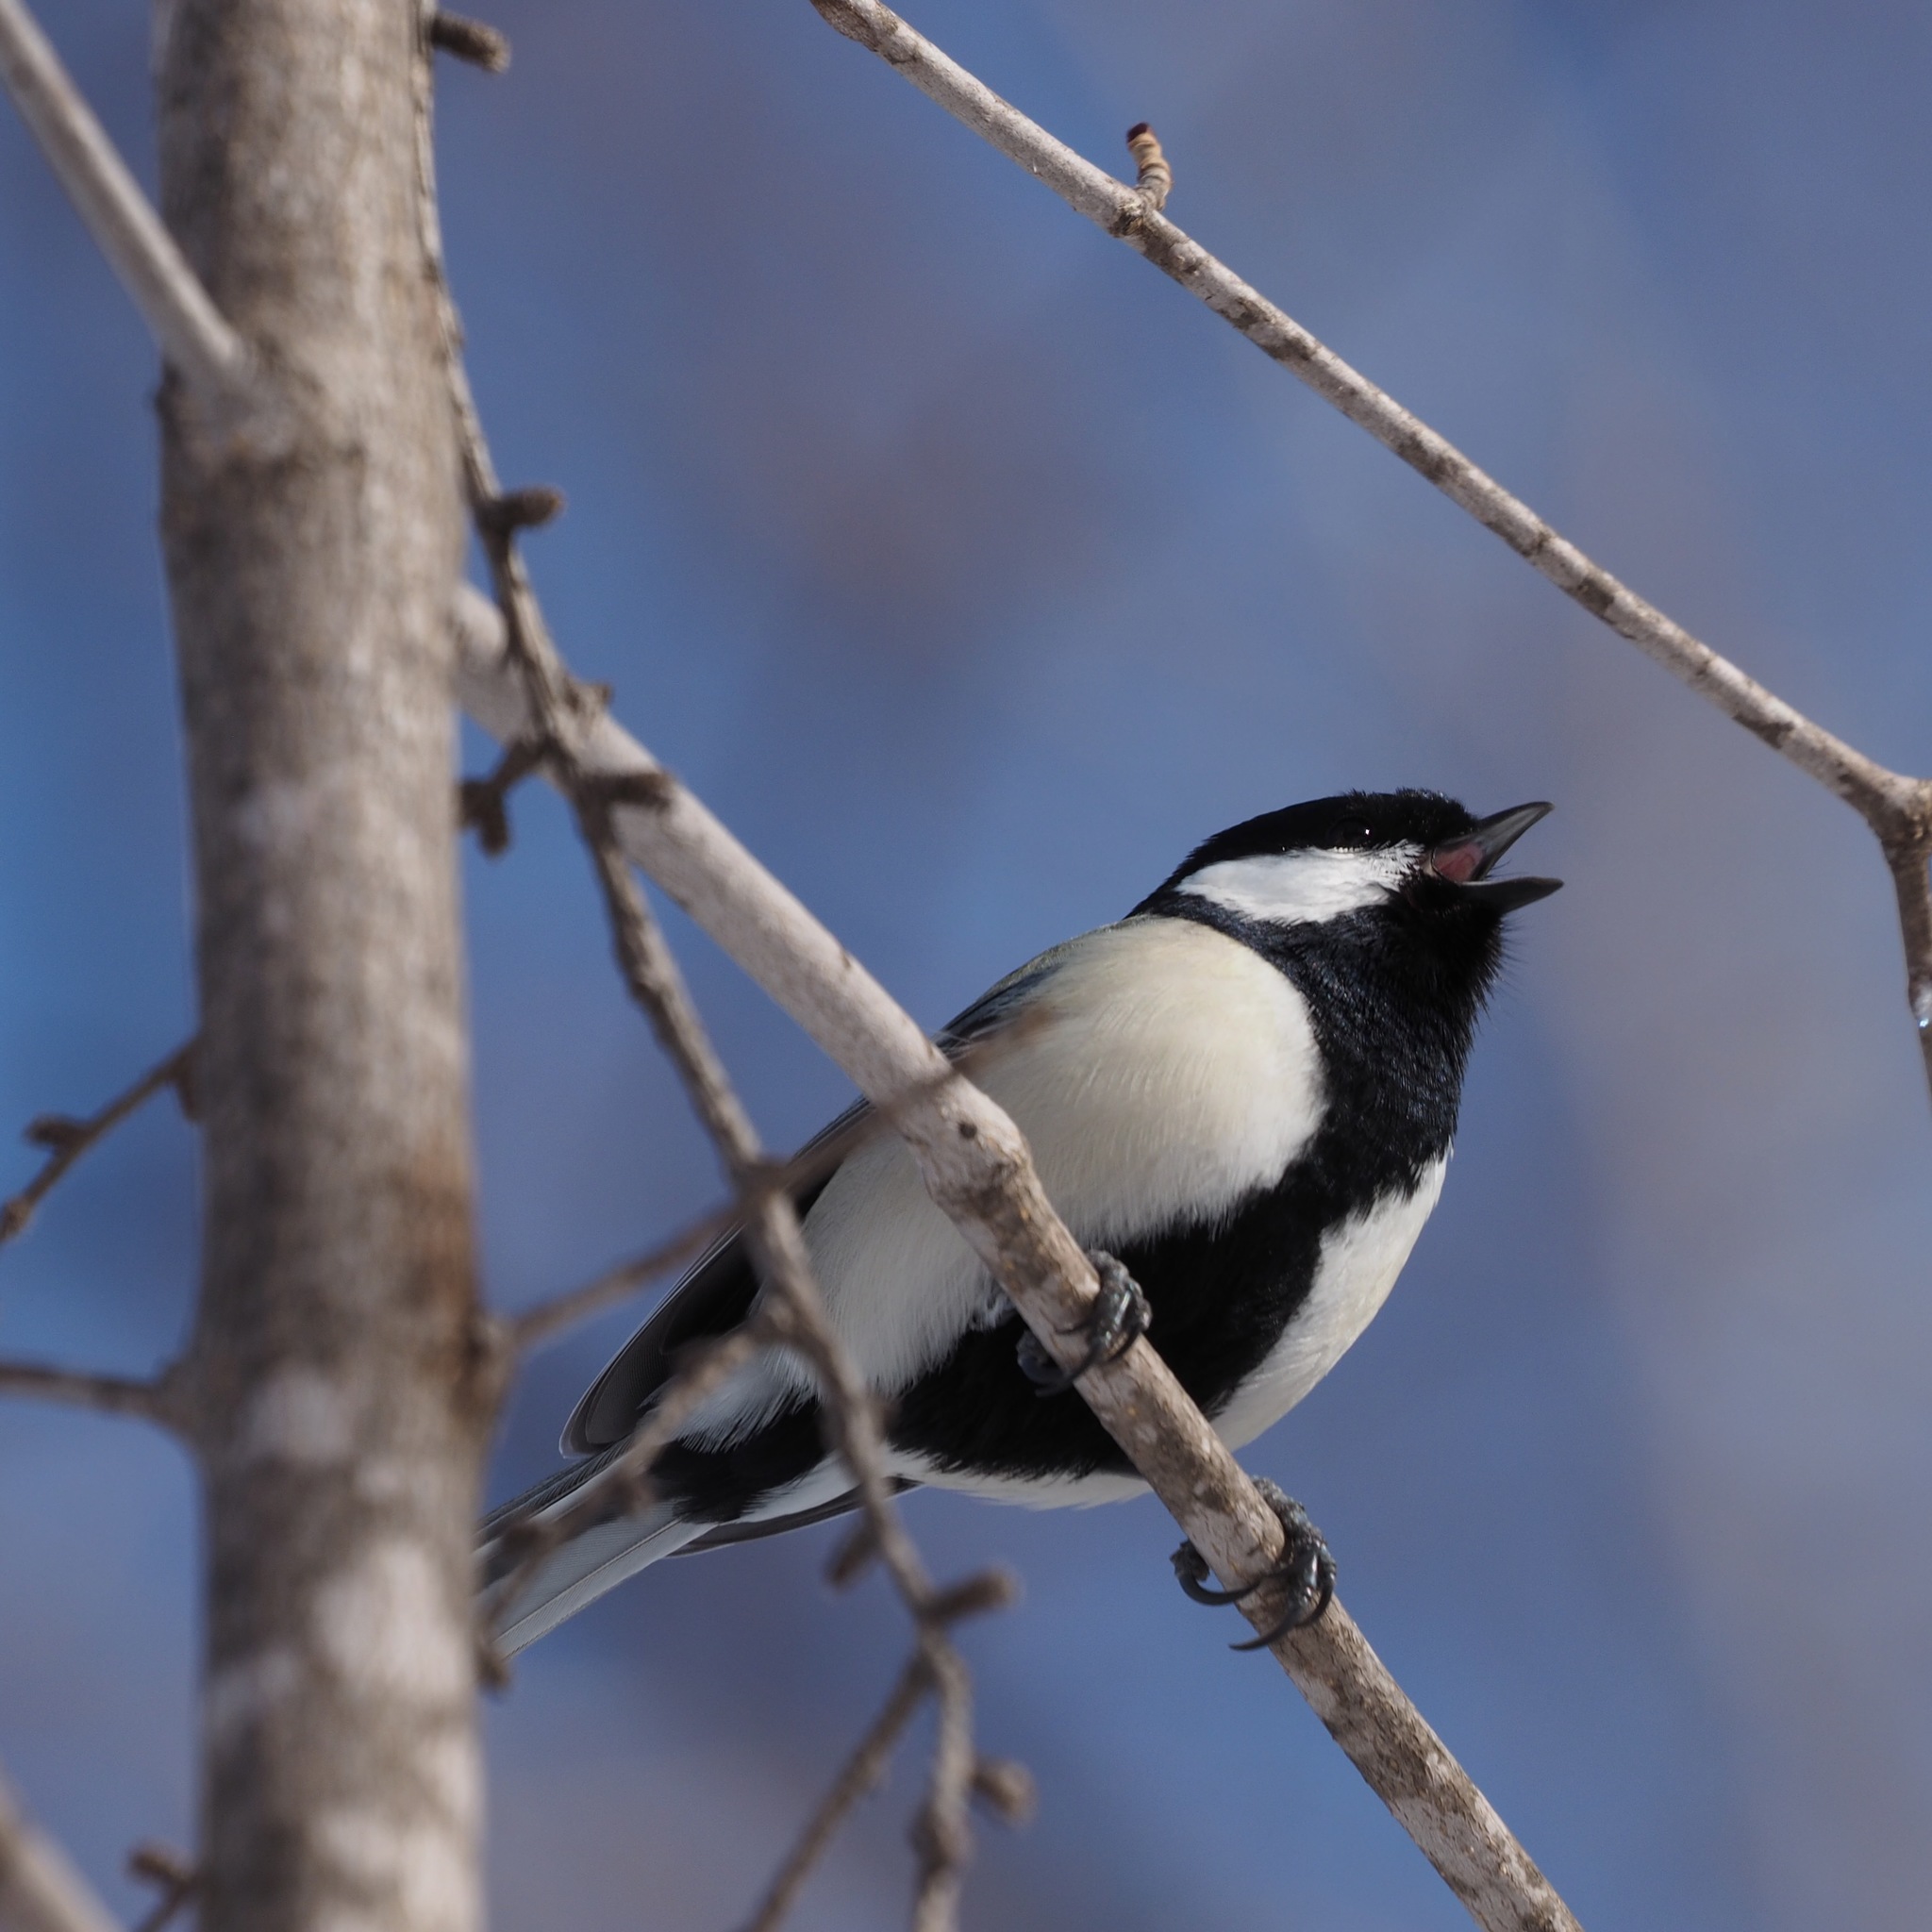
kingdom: Animalia
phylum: Chordata
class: Aves
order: Passeriformes
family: Paridae
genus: Parus
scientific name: Parus minor
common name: Japanese tit
